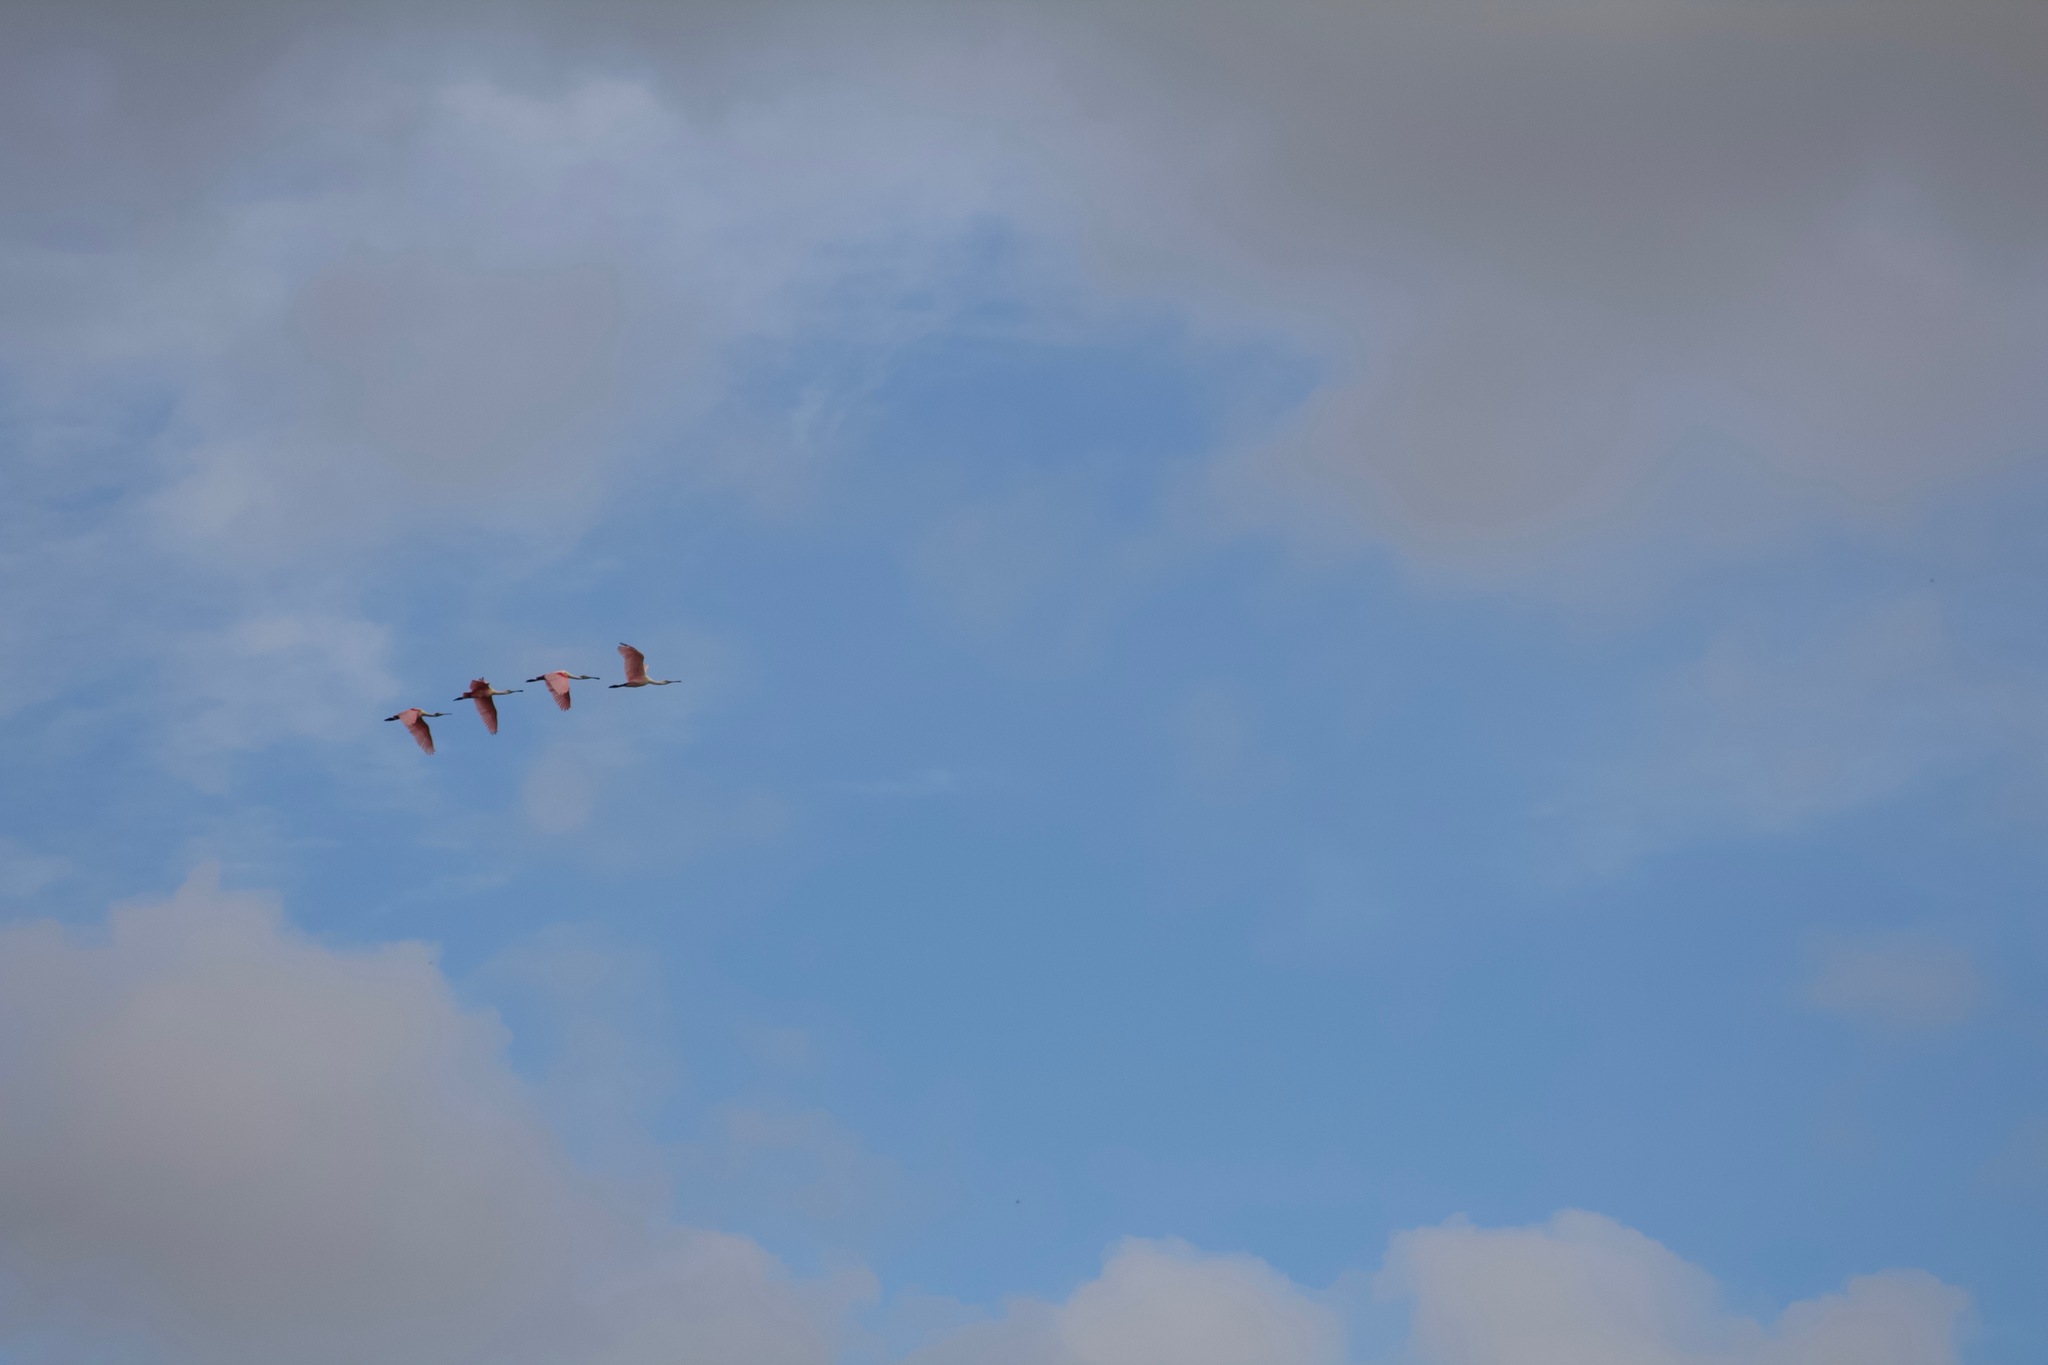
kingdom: Animalia
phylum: Chordata
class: Aves
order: Pelecaniformes
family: Threskiornithidae
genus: Platalea
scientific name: Platalea ajaja
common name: Roseate spoonbill
